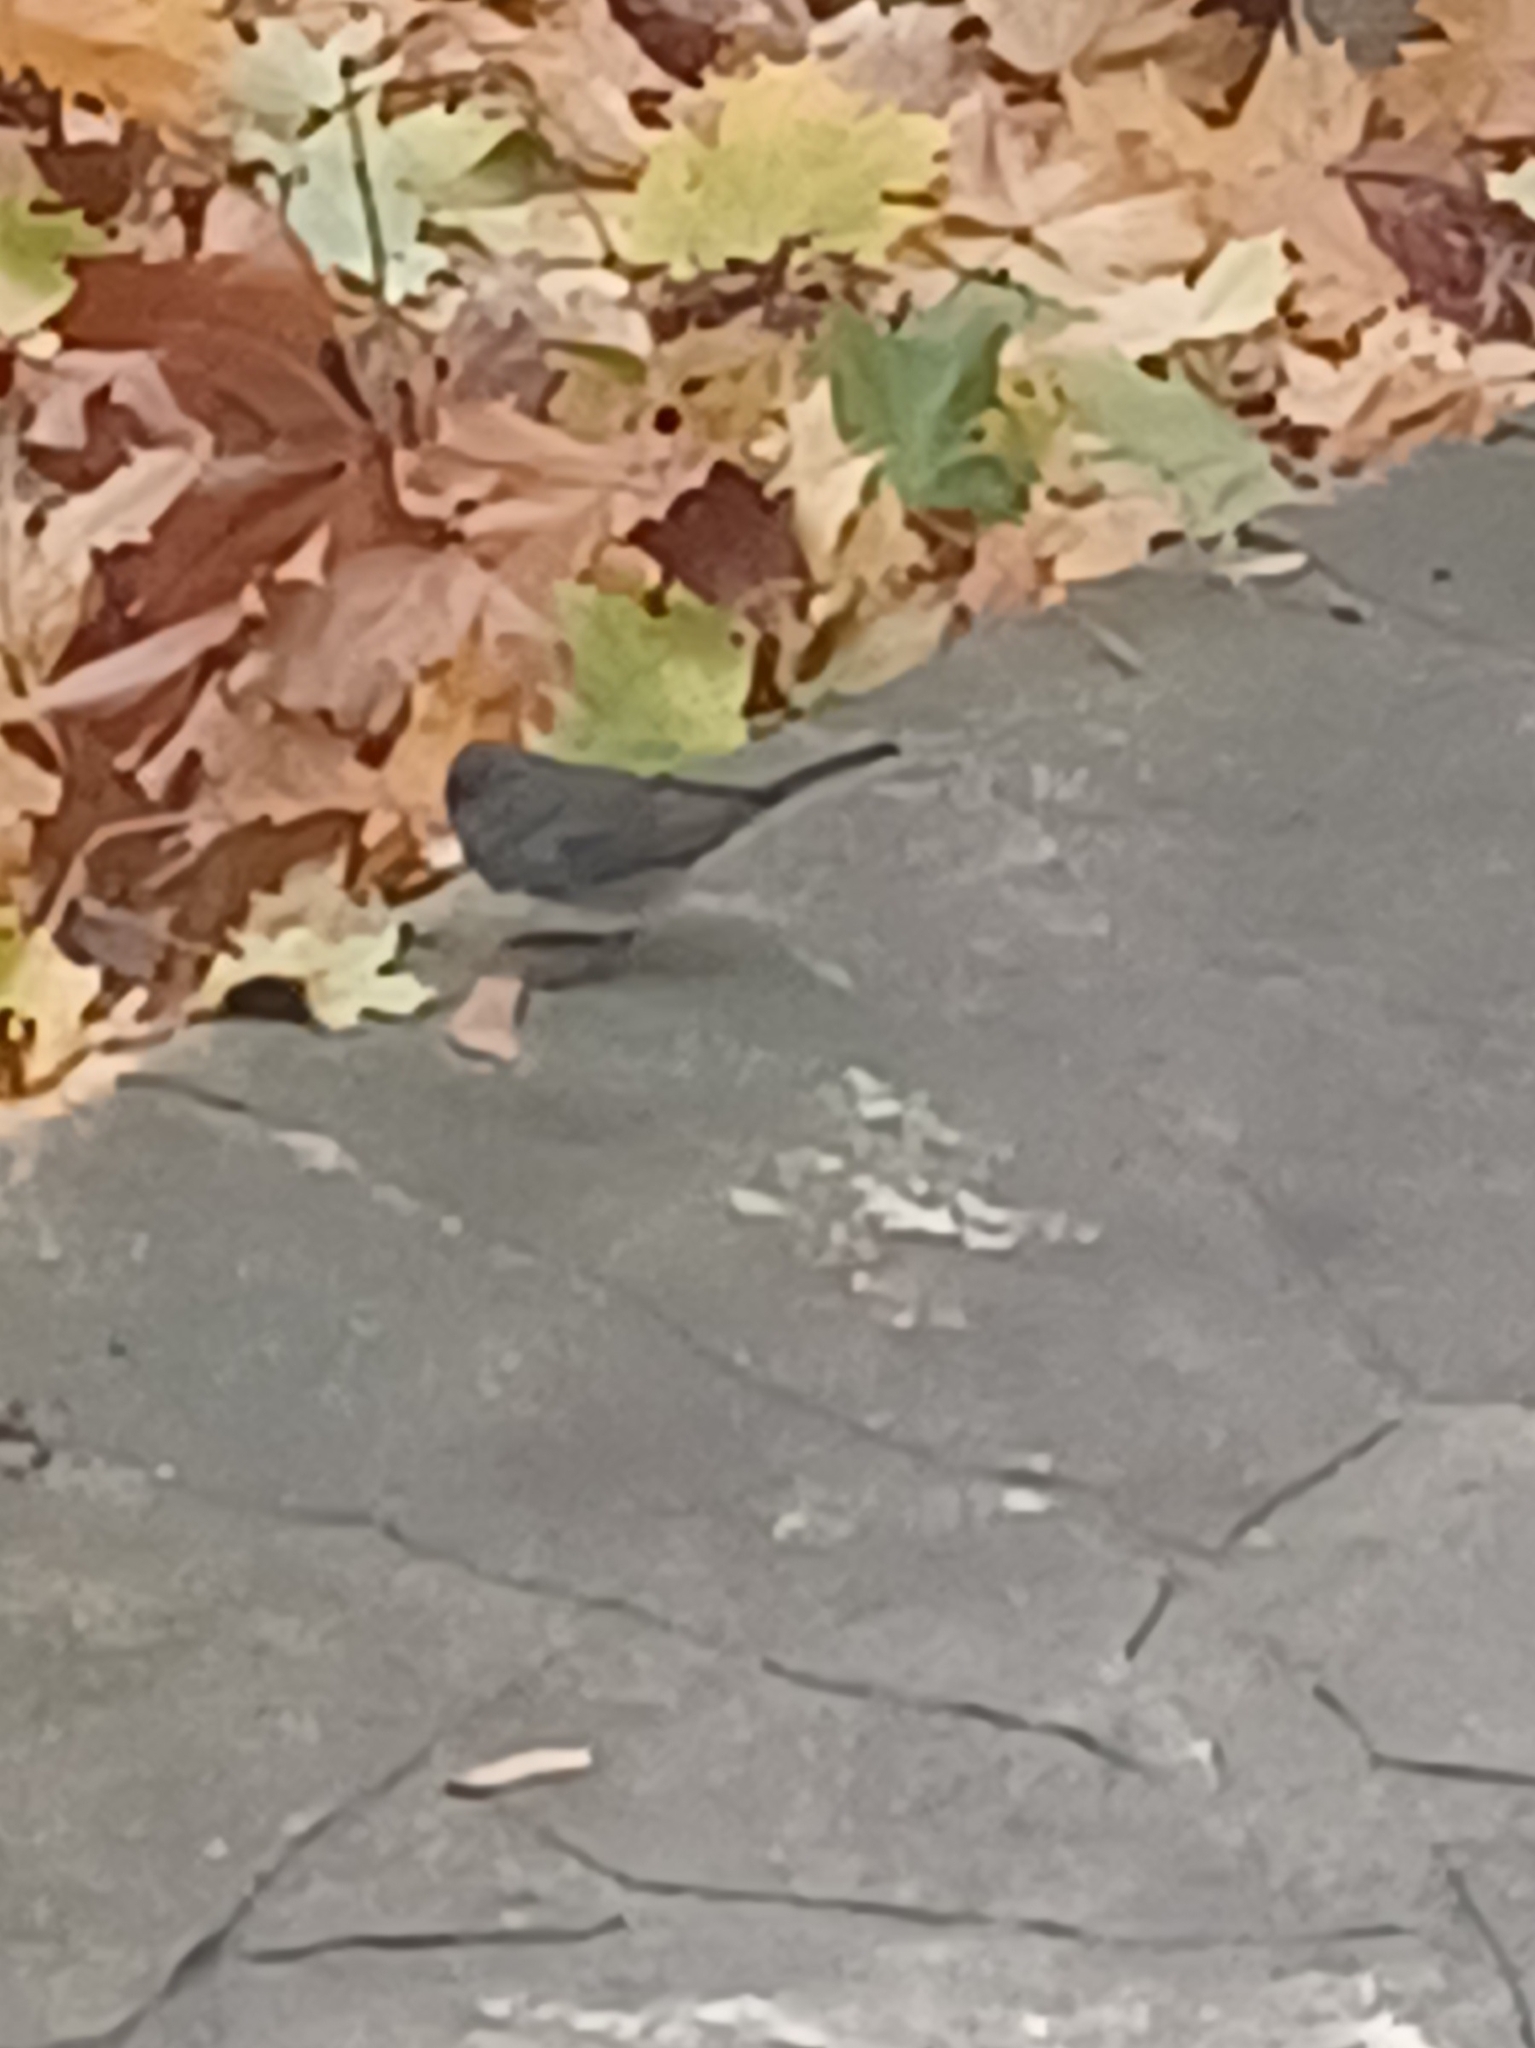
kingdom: Animalia
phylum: Chordata
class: Aves
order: Passeriformes
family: Passerellidae
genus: Junco
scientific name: Junco hyemalis
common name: Dark-eyed junco
